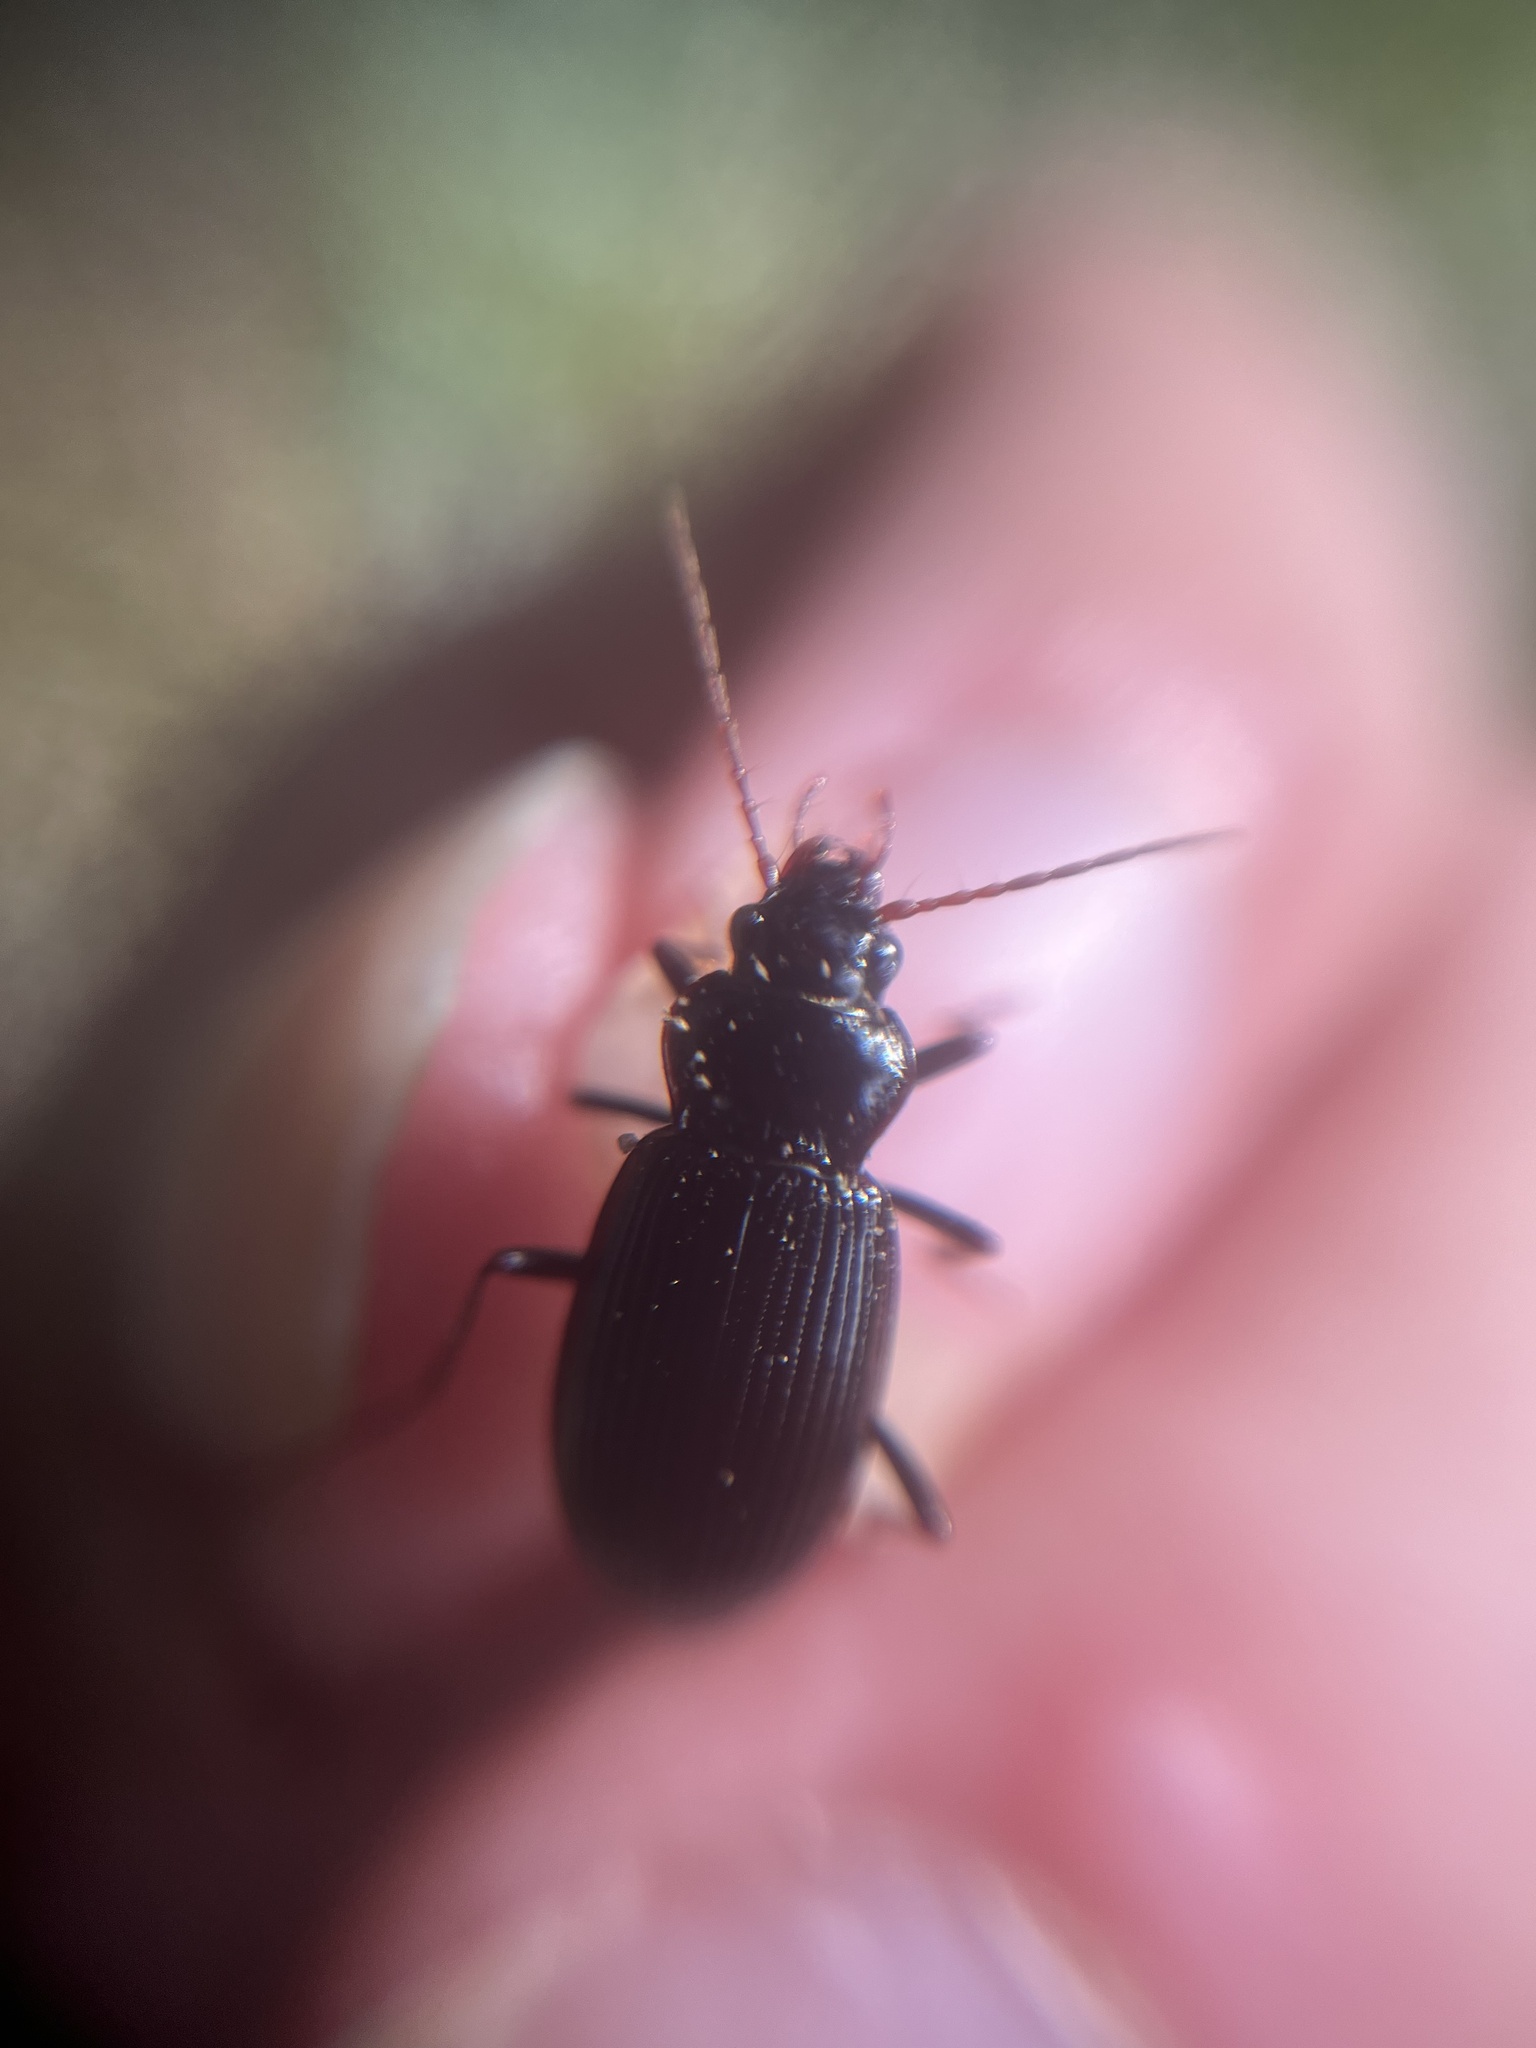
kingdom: Animalia
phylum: Arthropoda
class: Insecta
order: Coleoptera
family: Carabidae
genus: Nebria
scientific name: Nebria brevicollis
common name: Short-necked gazelle beetle
